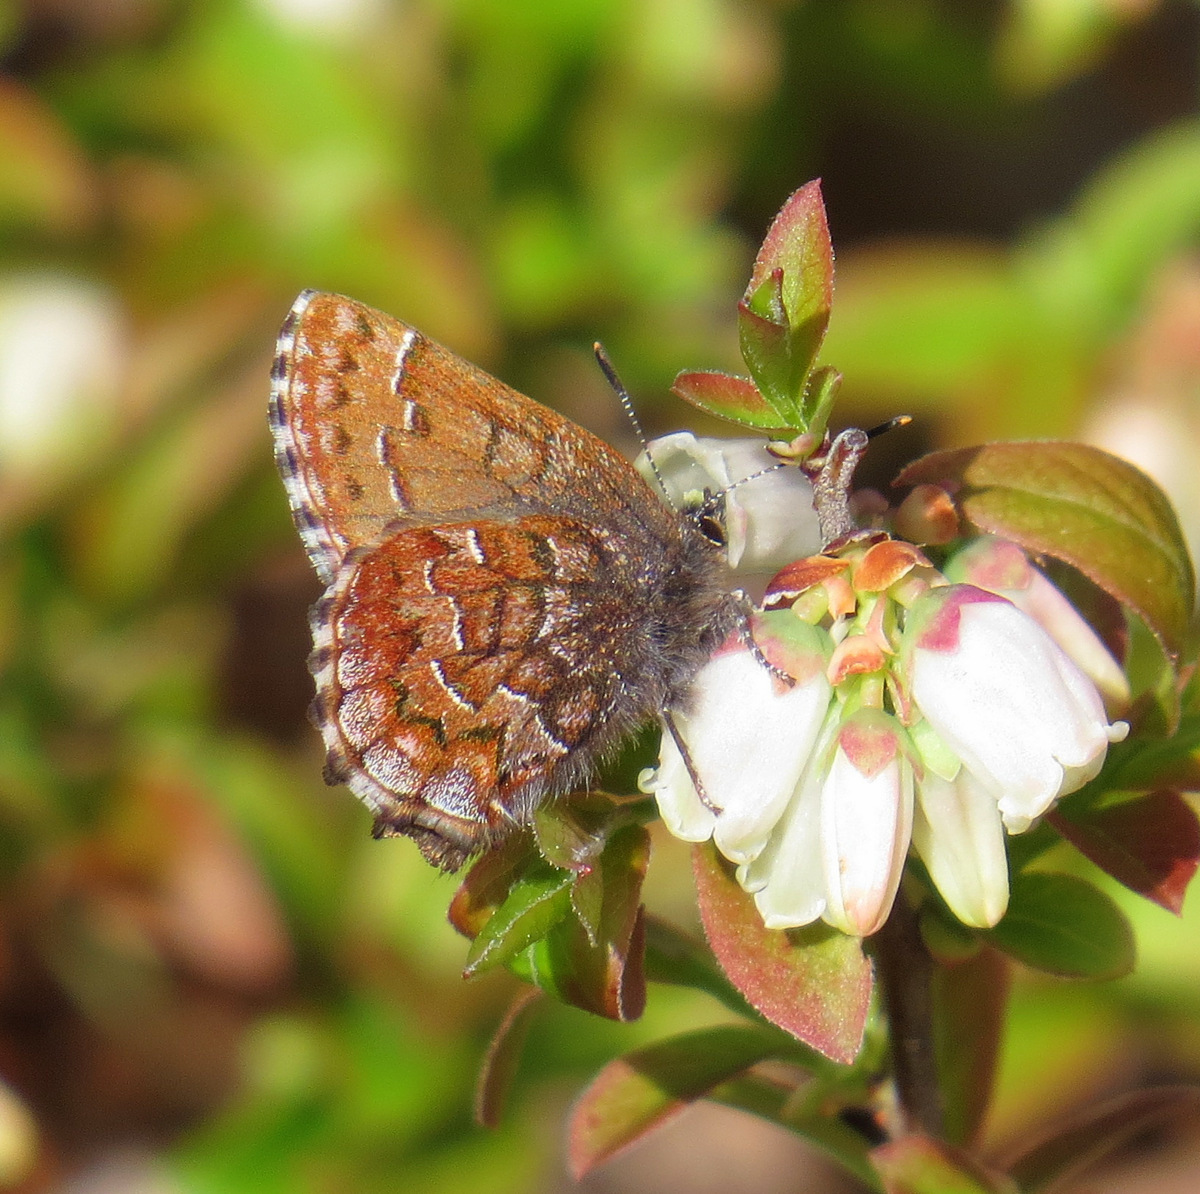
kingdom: Animalia
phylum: Arthropoda
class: Insecta
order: Lepidoptera
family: Lycaenidae
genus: Incisalia
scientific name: Incisalia niphon
